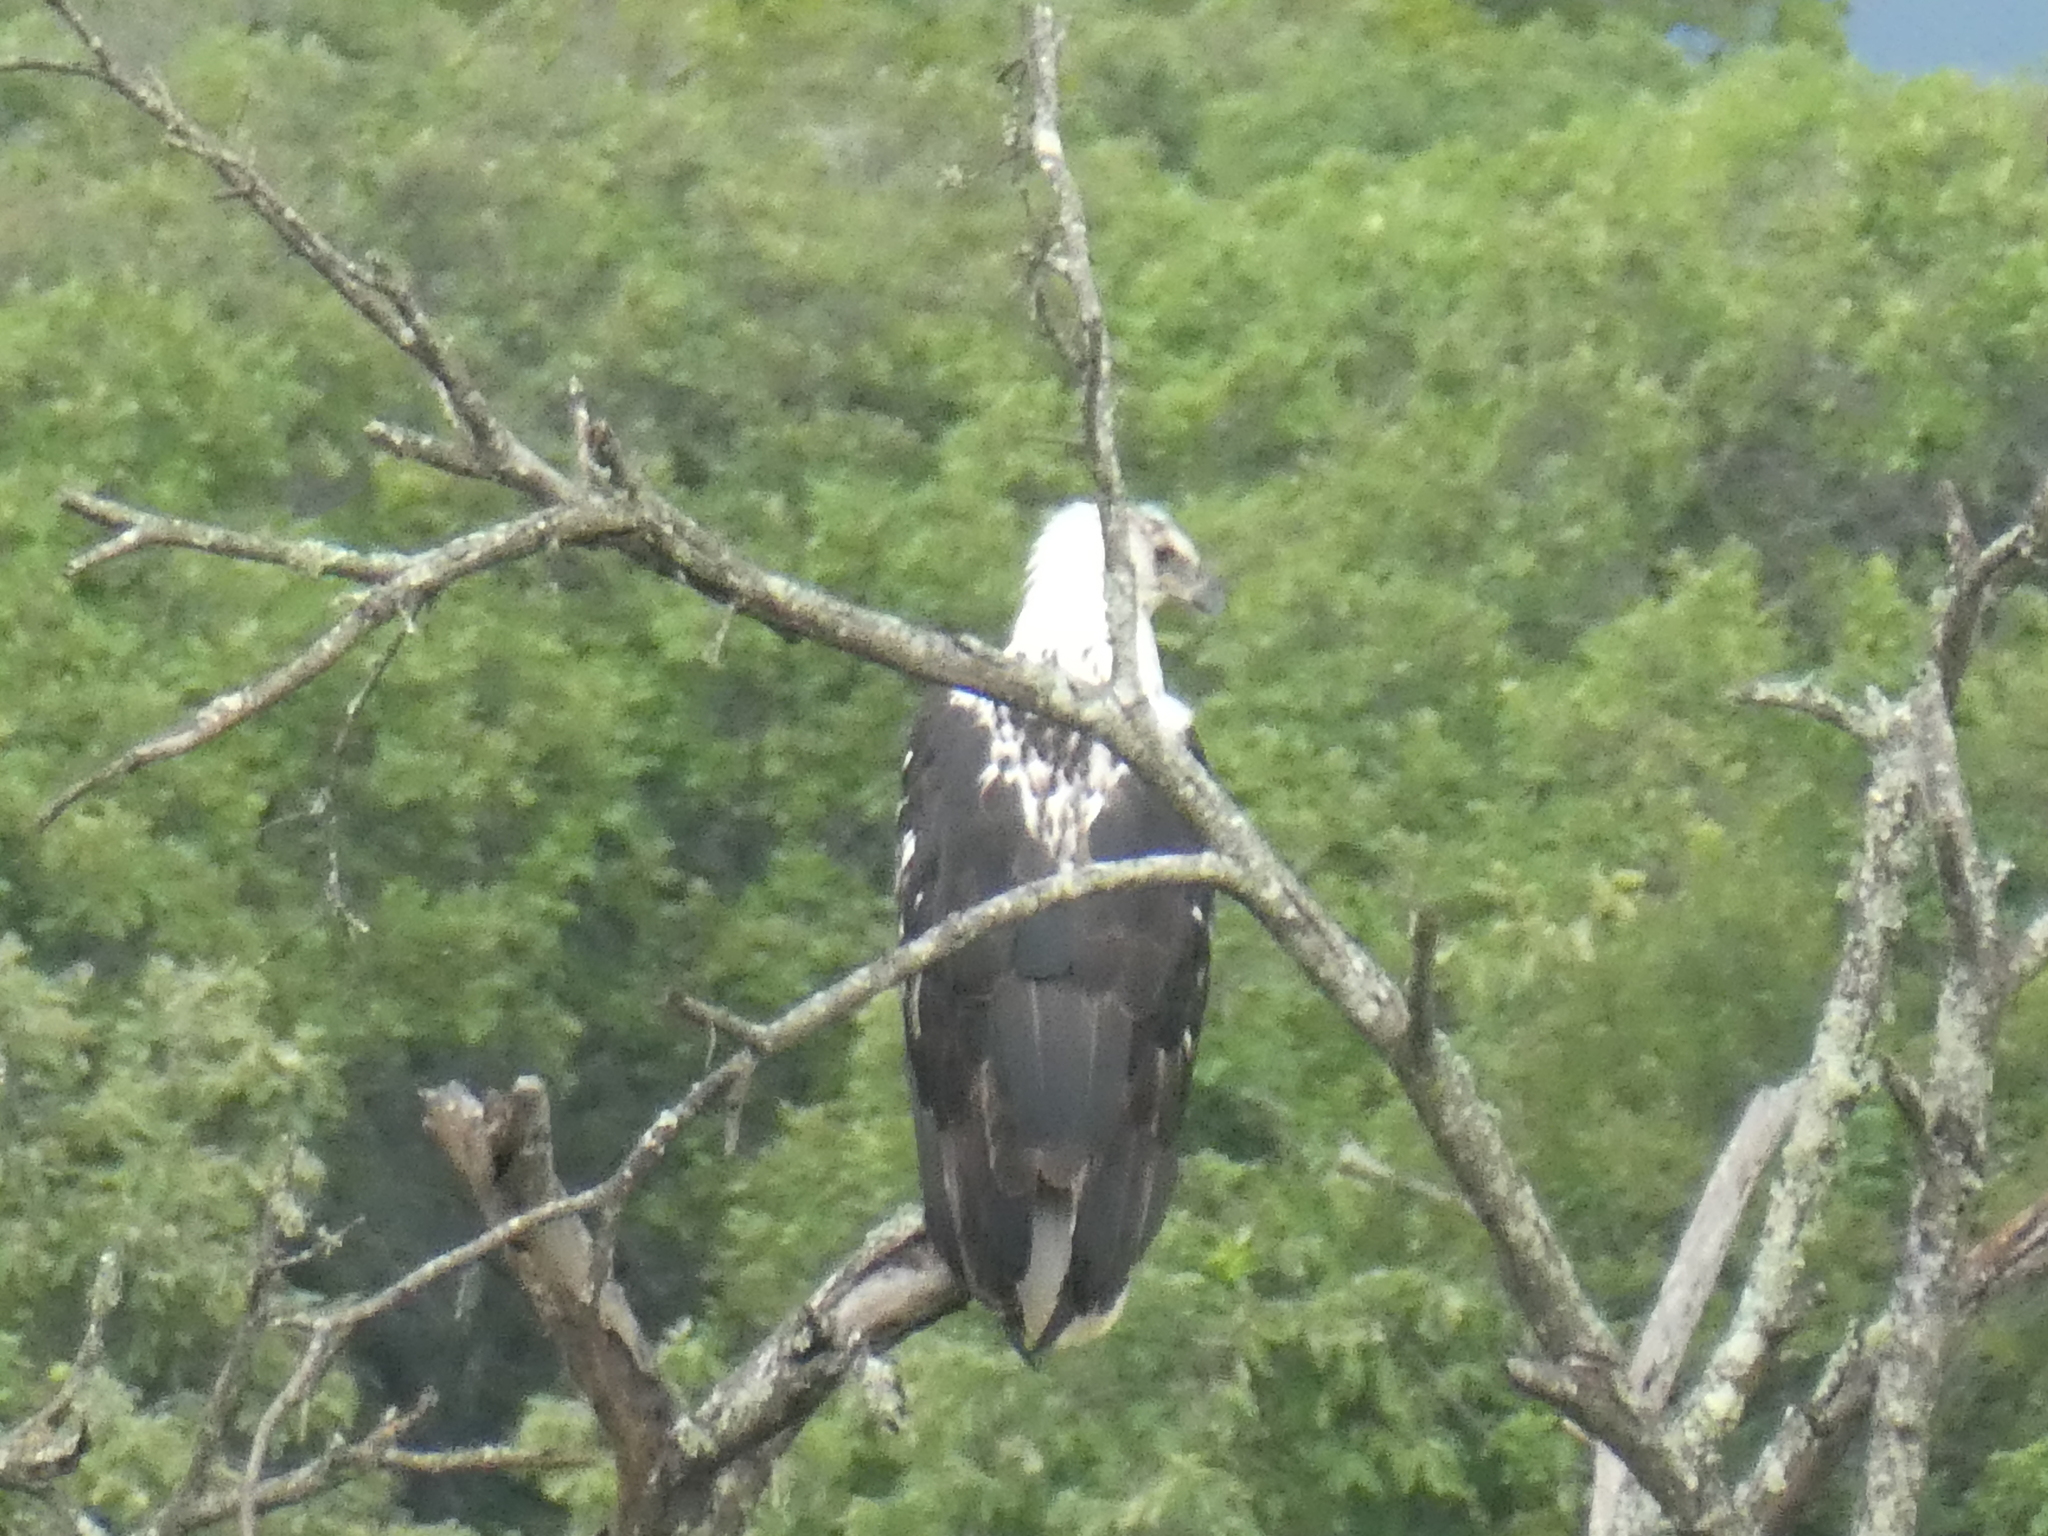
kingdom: Animalia
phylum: Chordata
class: Aves
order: Accipitriformes
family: Accipitridae
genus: Haliaeetus
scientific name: Haliaeetus vocifer
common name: African fish eagle
